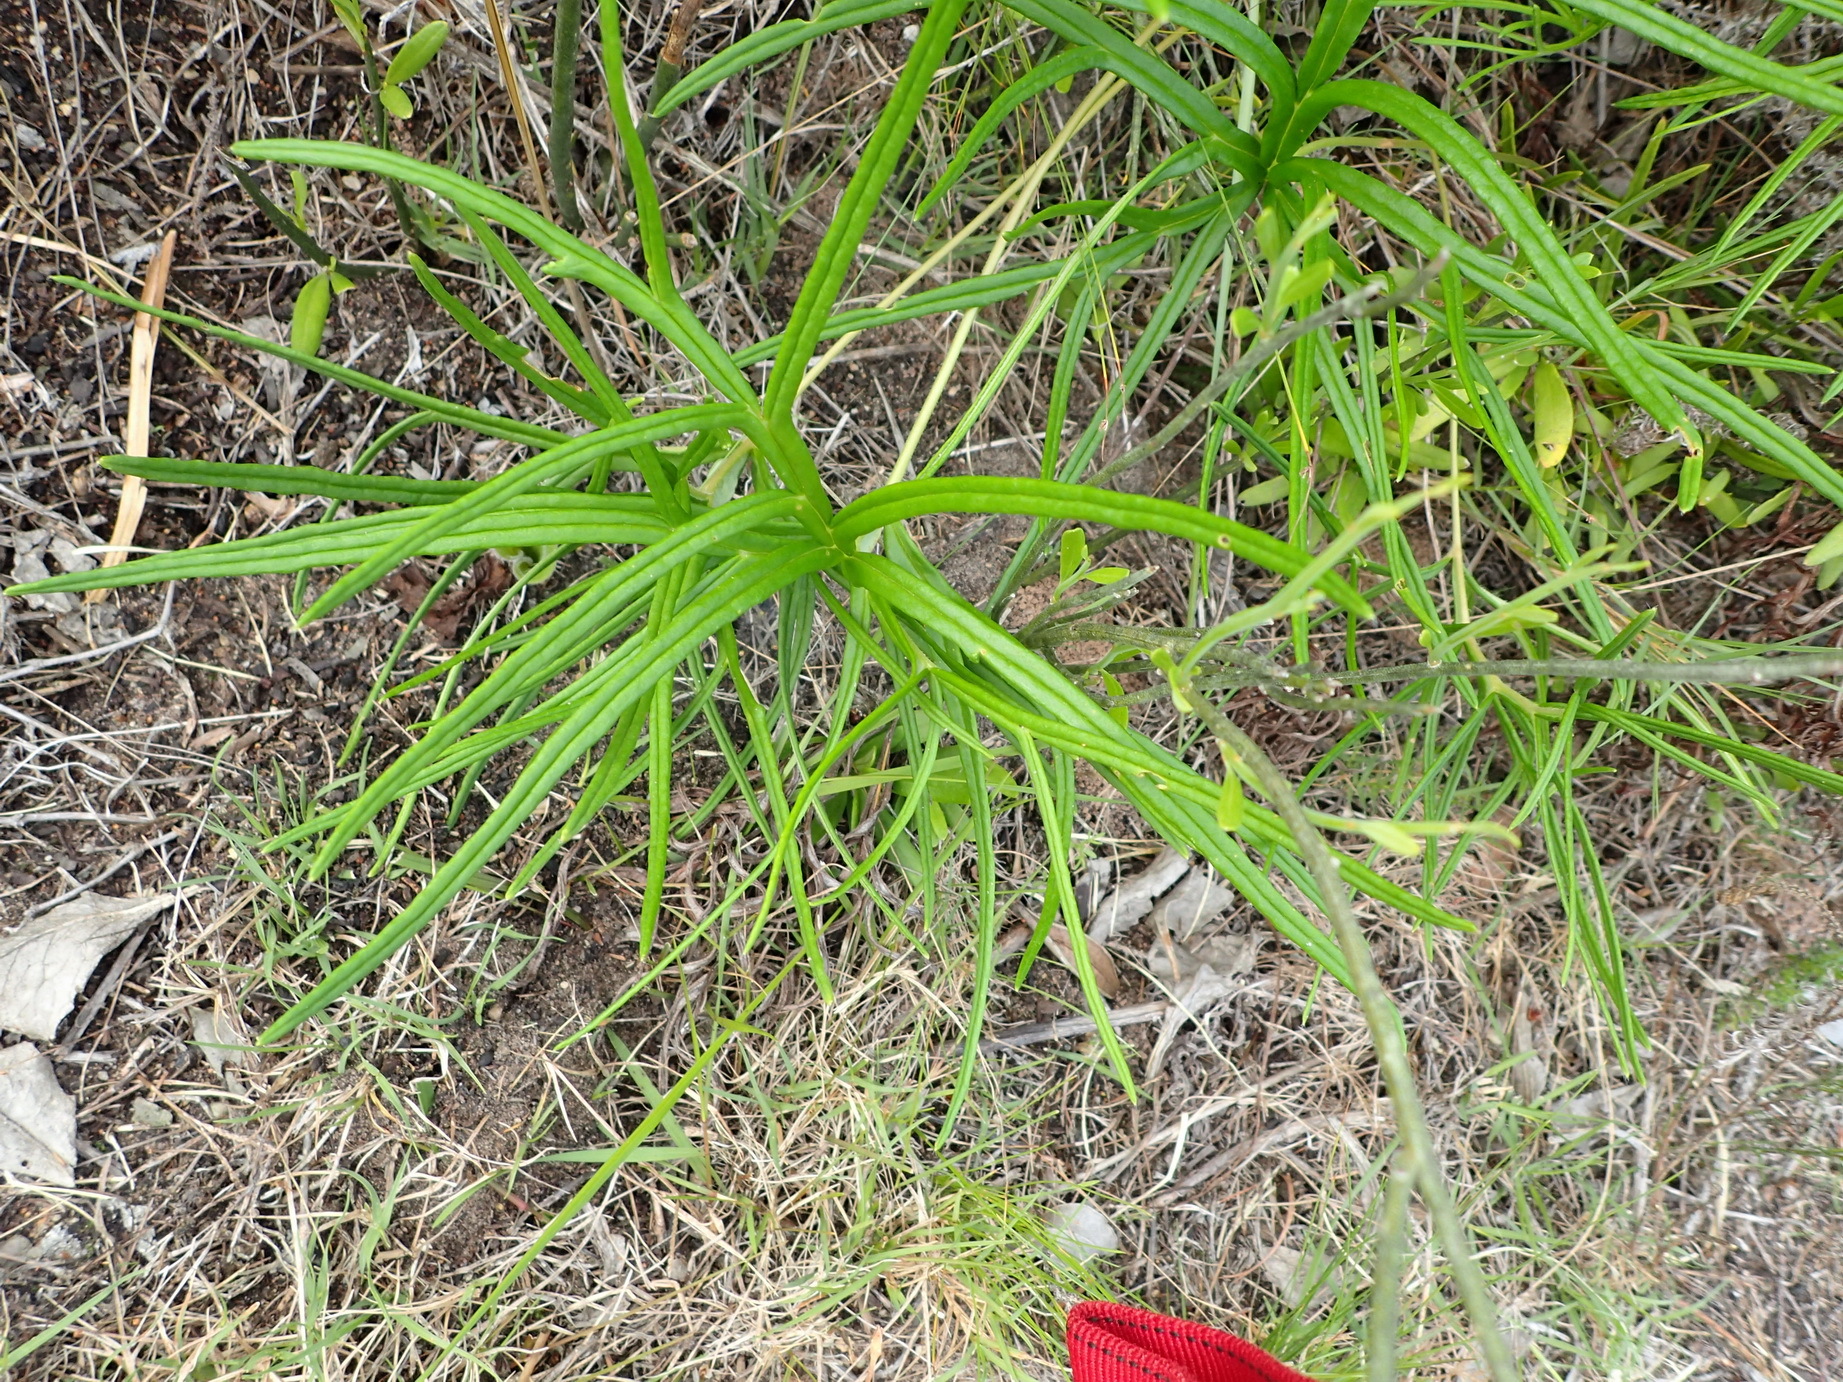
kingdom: Plantae
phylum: Tracheophyta
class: Magnoliopsida
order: Geraniales
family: Geraniaceae
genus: Pelargonium
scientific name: Pelargonium caffrum
